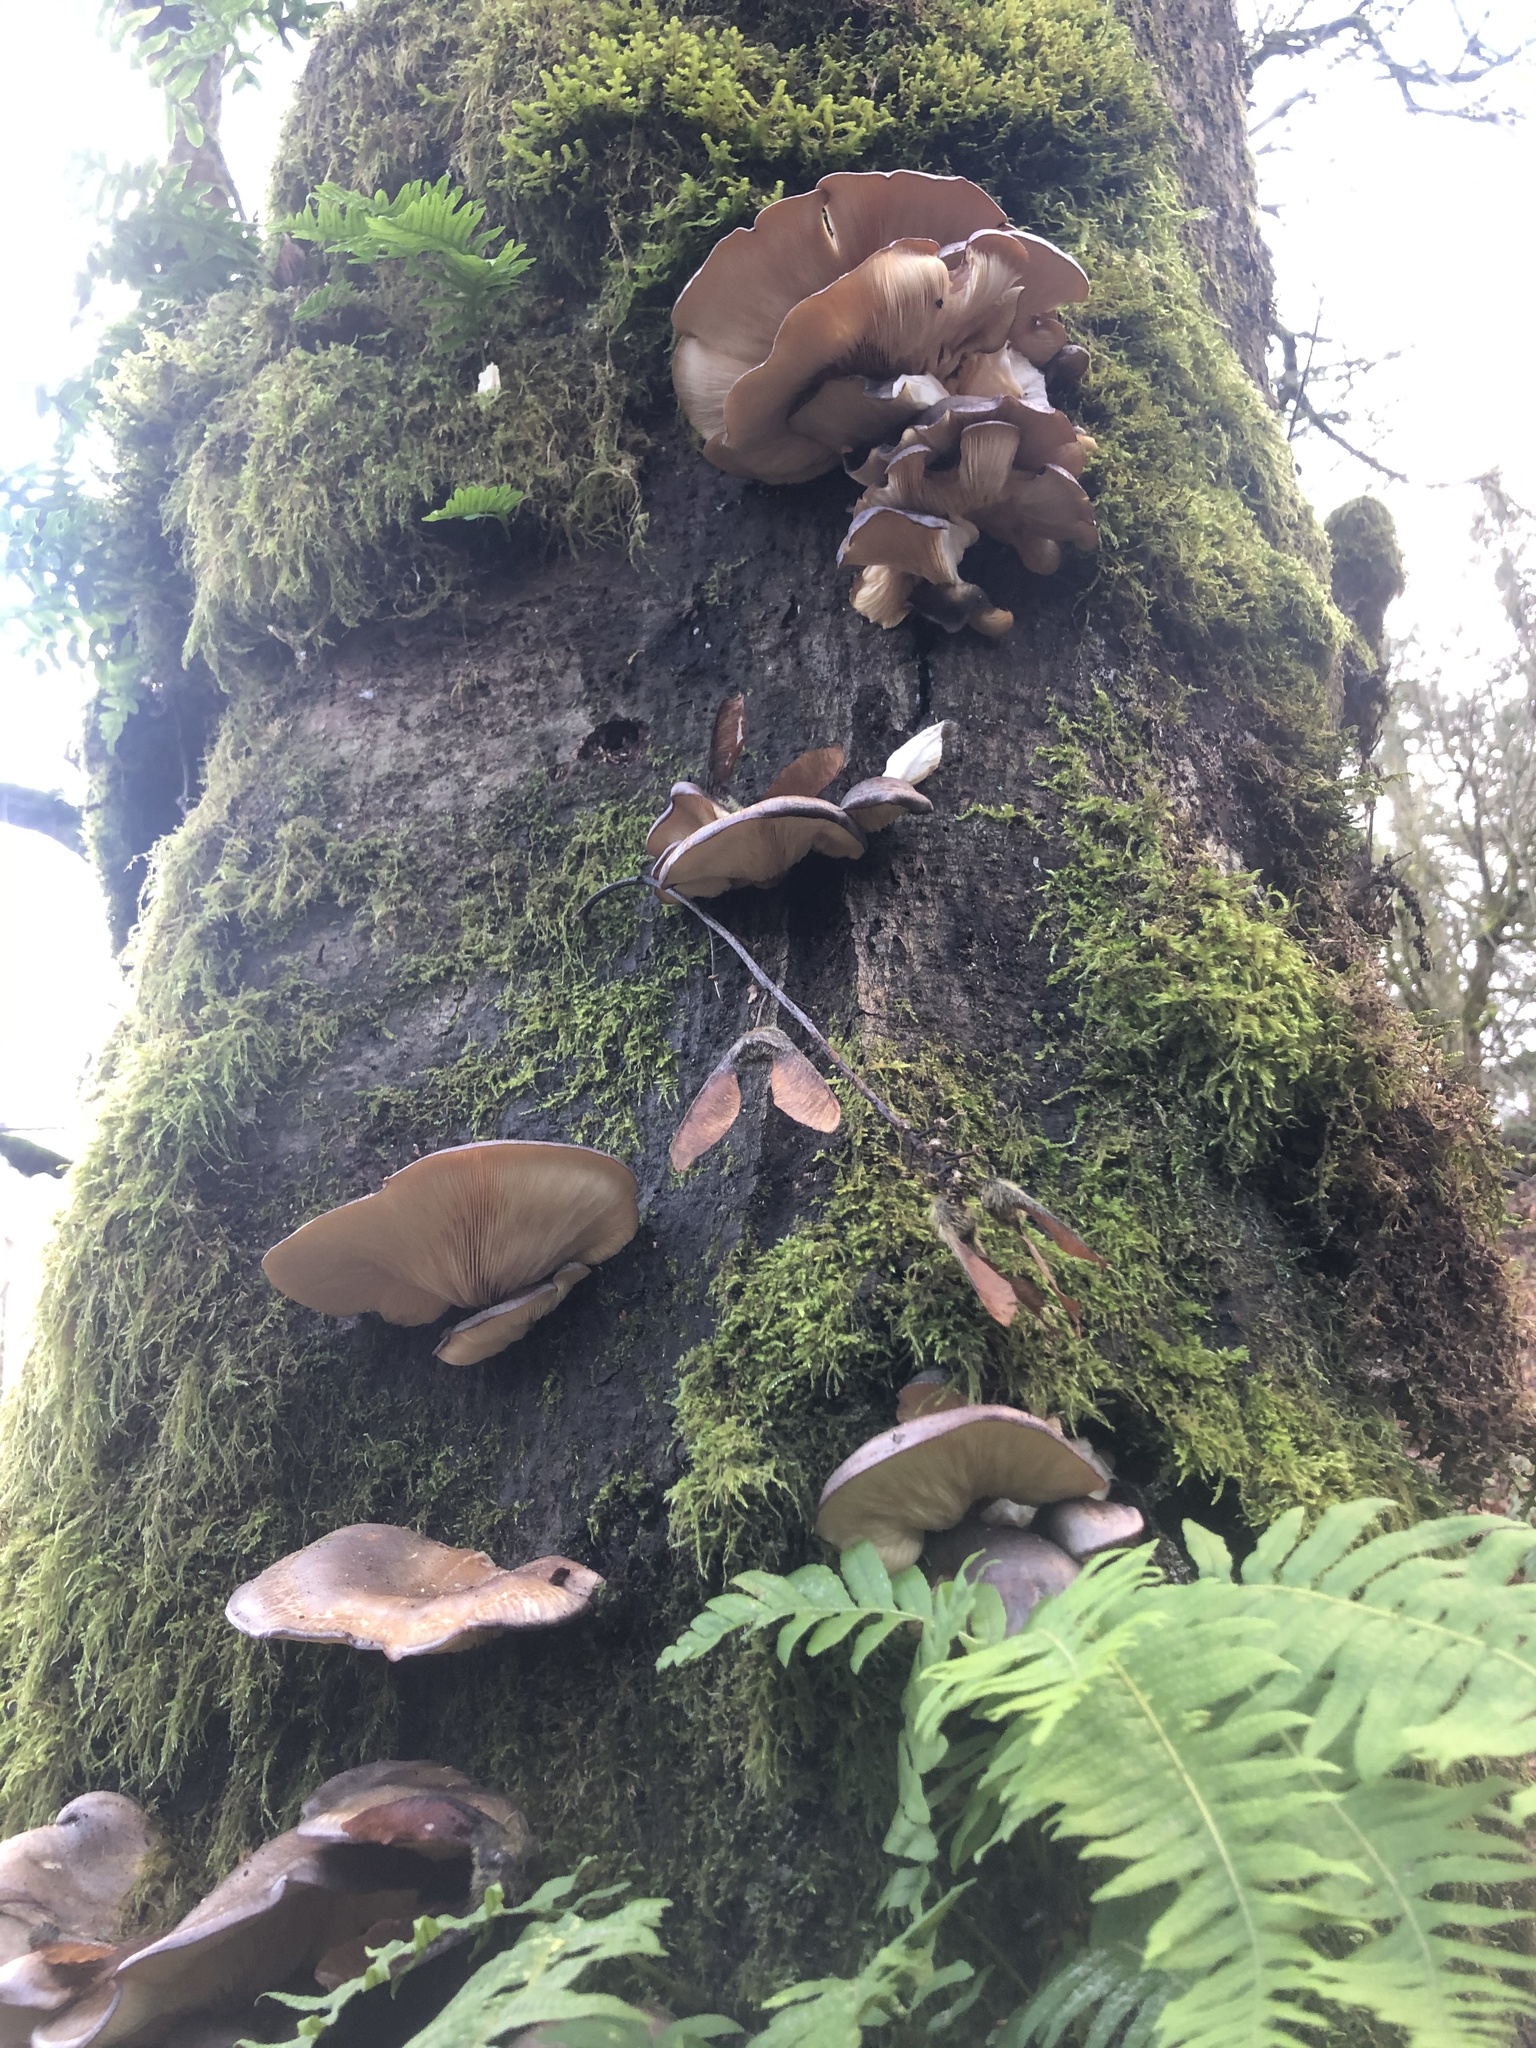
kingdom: Fungi
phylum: Basidiomycota
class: Agaricomycetes
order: Agaricales
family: Sarcomyxaceae
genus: Sarcomyxa
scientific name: Sarcomyxa serotina
